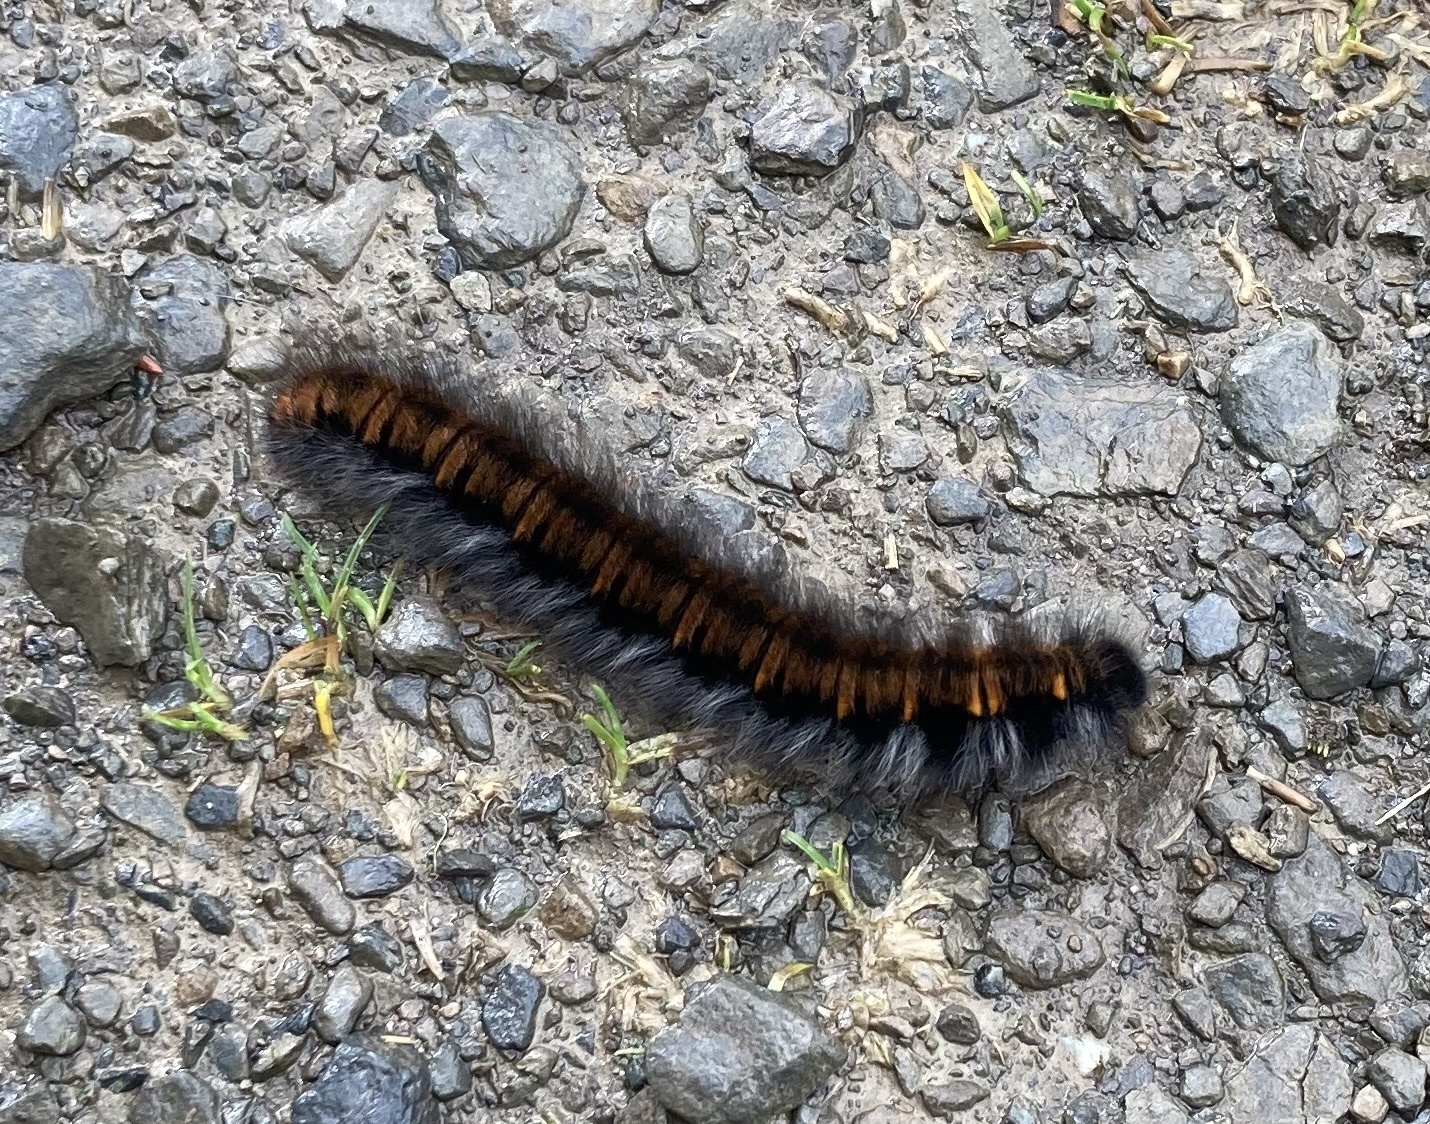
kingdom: Animalia
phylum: Arthropoda
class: Insecta
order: Lepidoptera
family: Lasiocampidae
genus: Macrothylacia
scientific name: Macrothylacia rubi
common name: Fox moth
